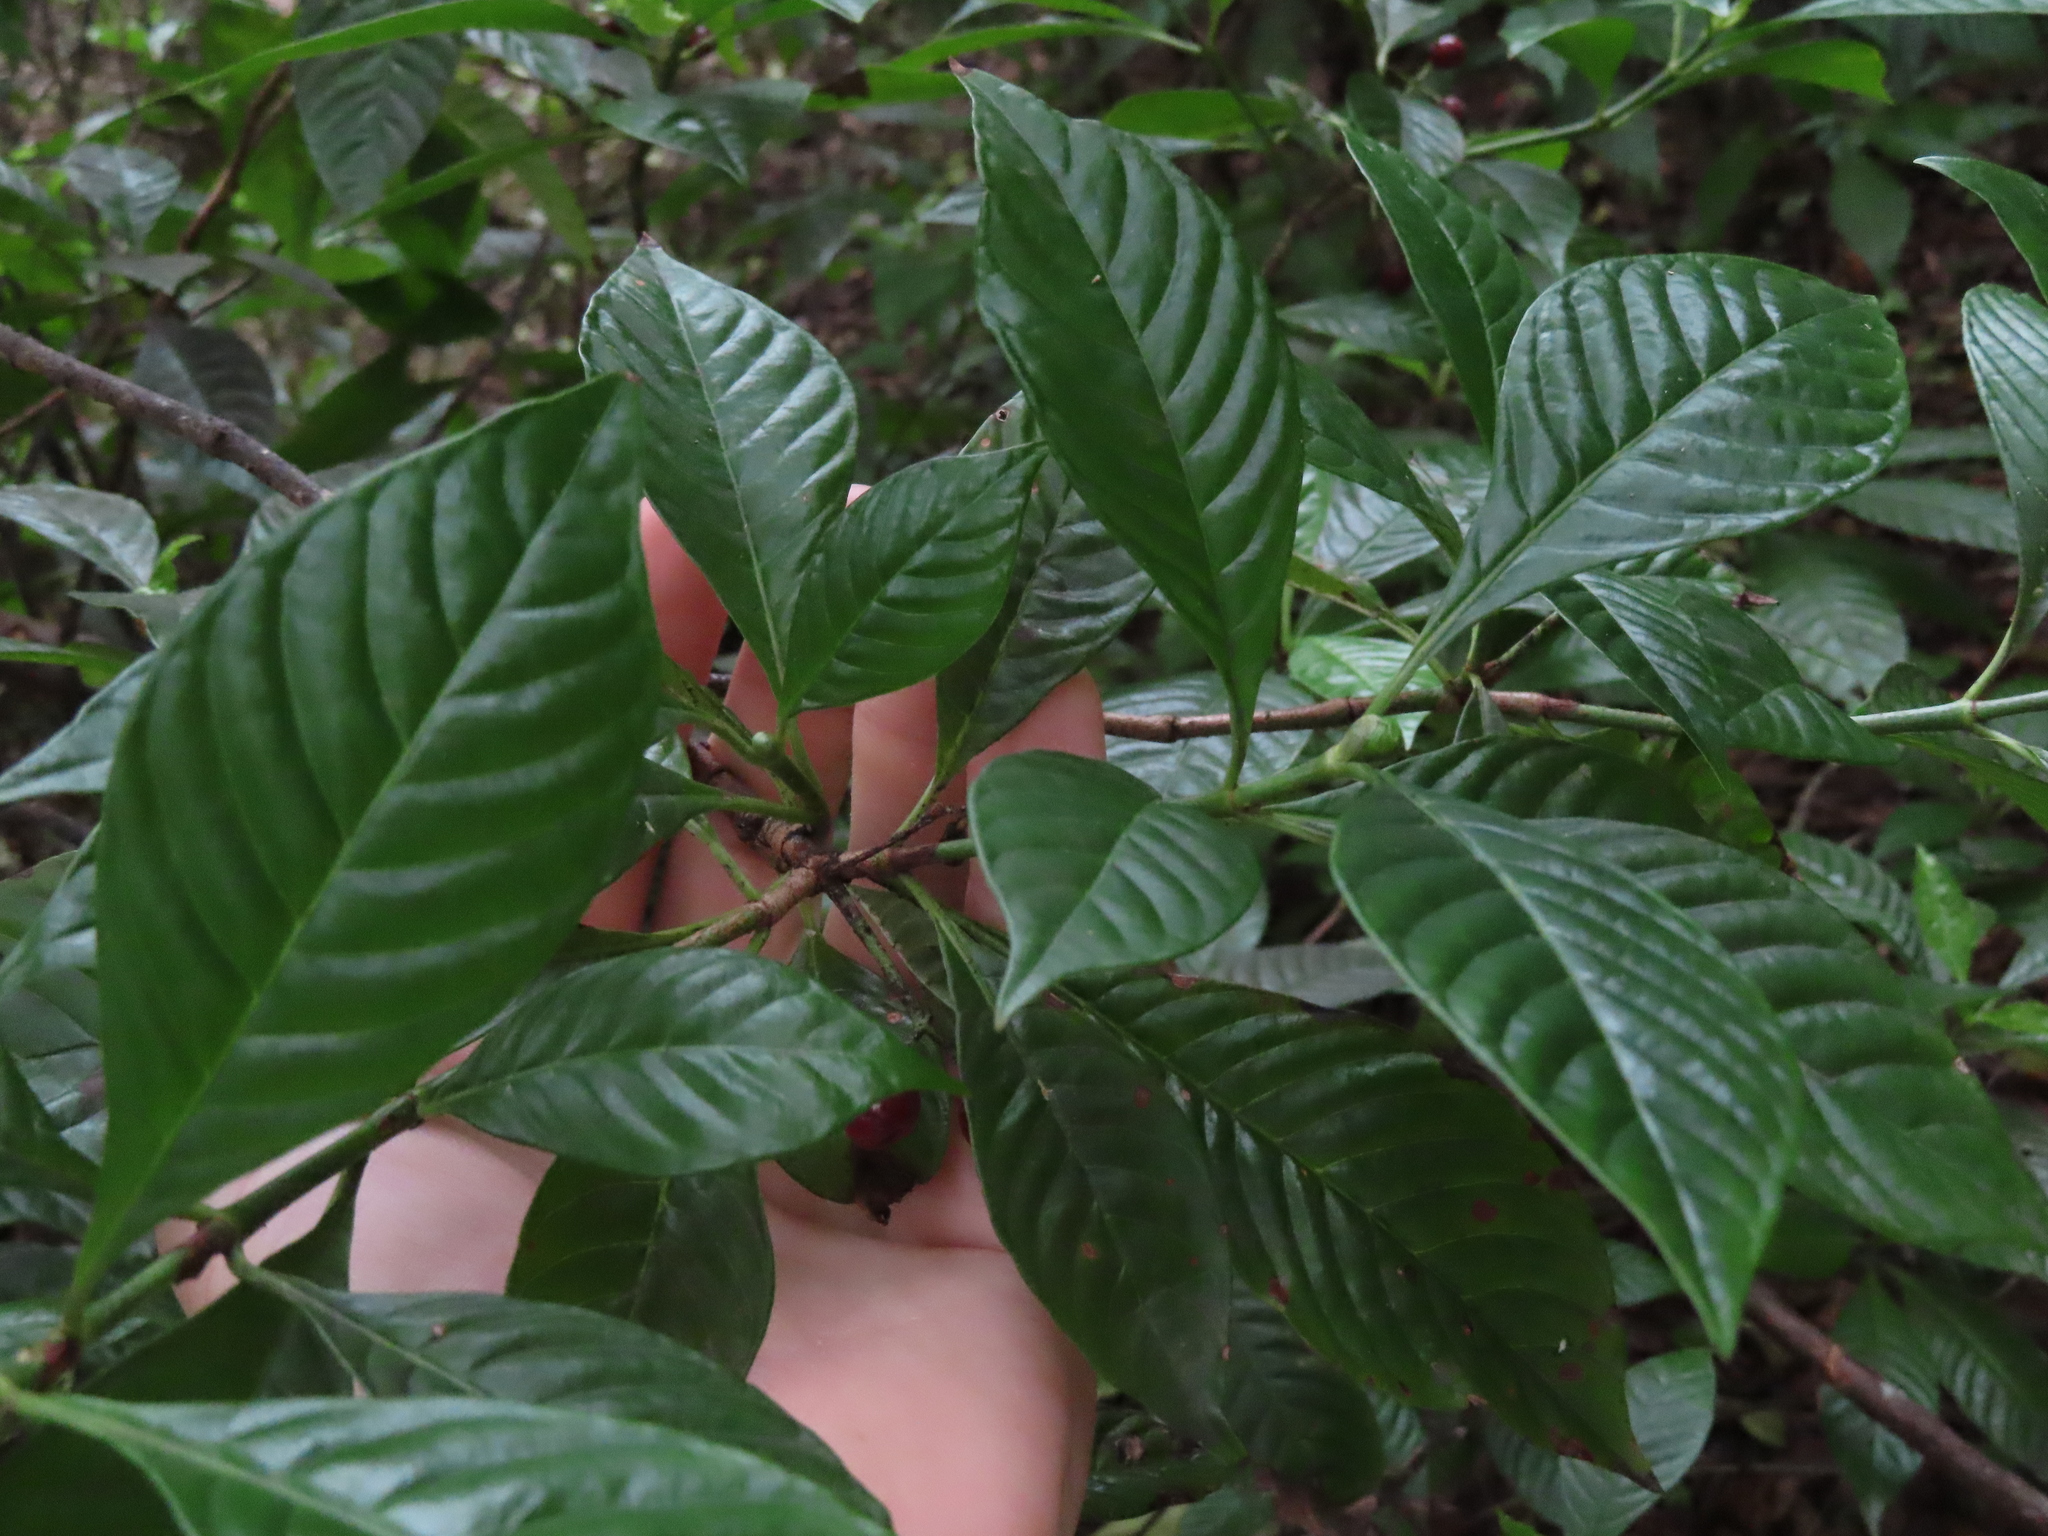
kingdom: Plantae
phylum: Tracheophyta
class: Magnoliopsida
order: Gentianales
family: Rubiaceae
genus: Psychotria
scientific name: Psychotria nervosa
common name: Bastard cankerberry
